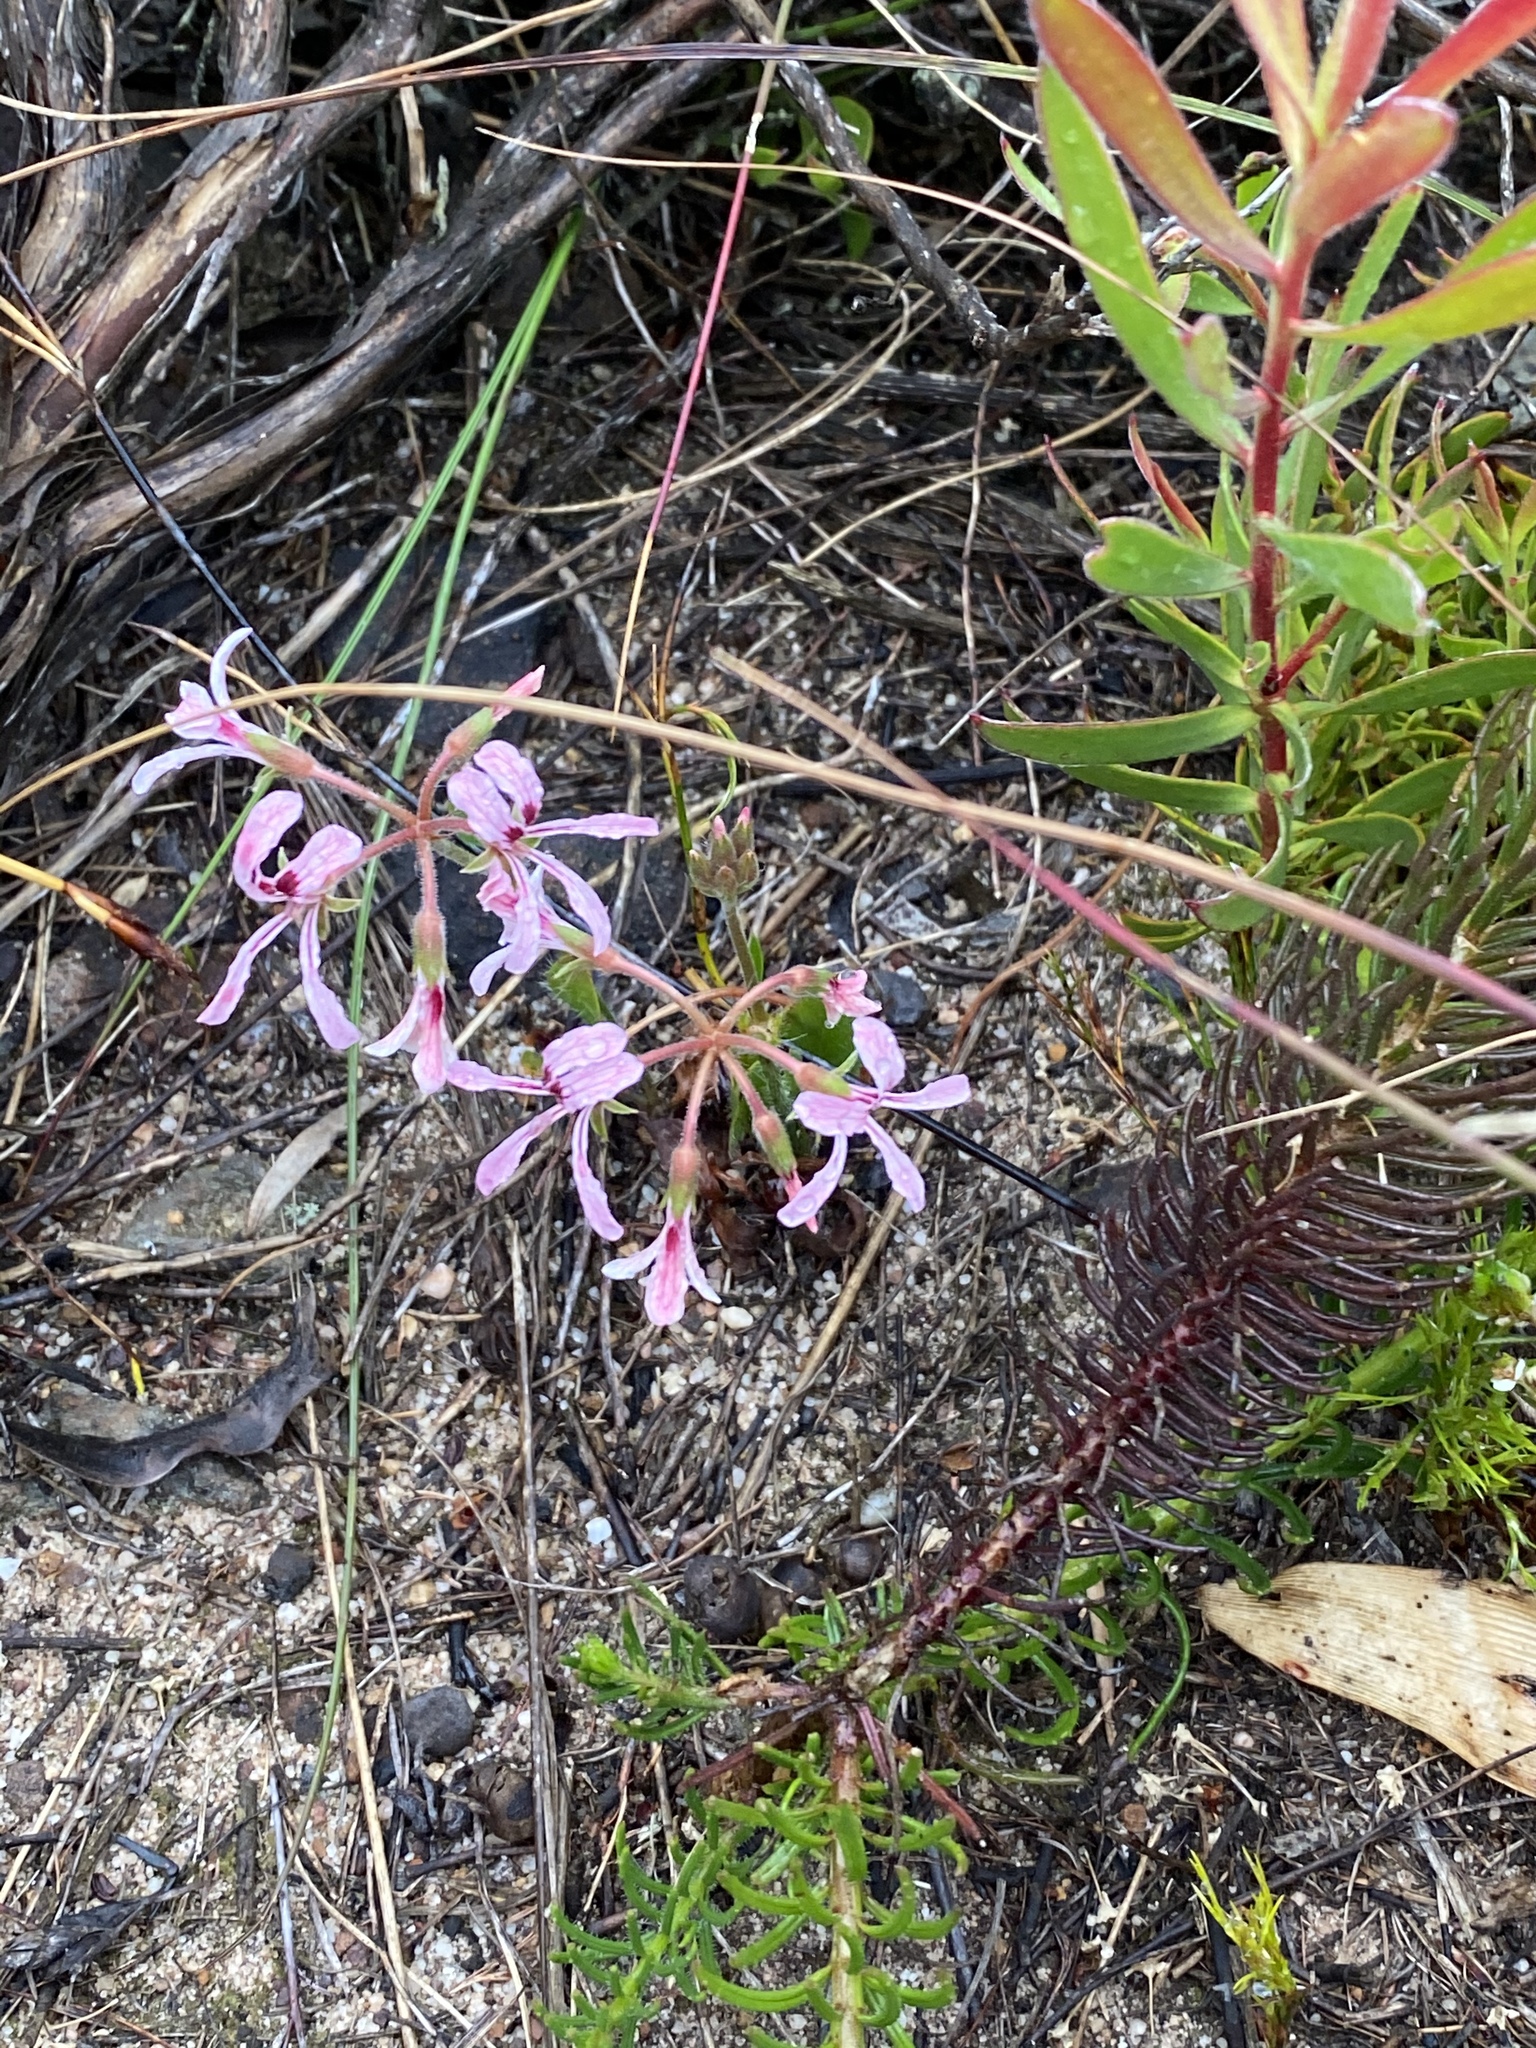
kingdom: Plantae
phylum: Tracheophyta
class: Magnoliopsida
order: Geraniales
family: Geraniaceae
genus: Pelargonium
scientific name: Pelargonium longifolium
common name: Bearded pelargonium
